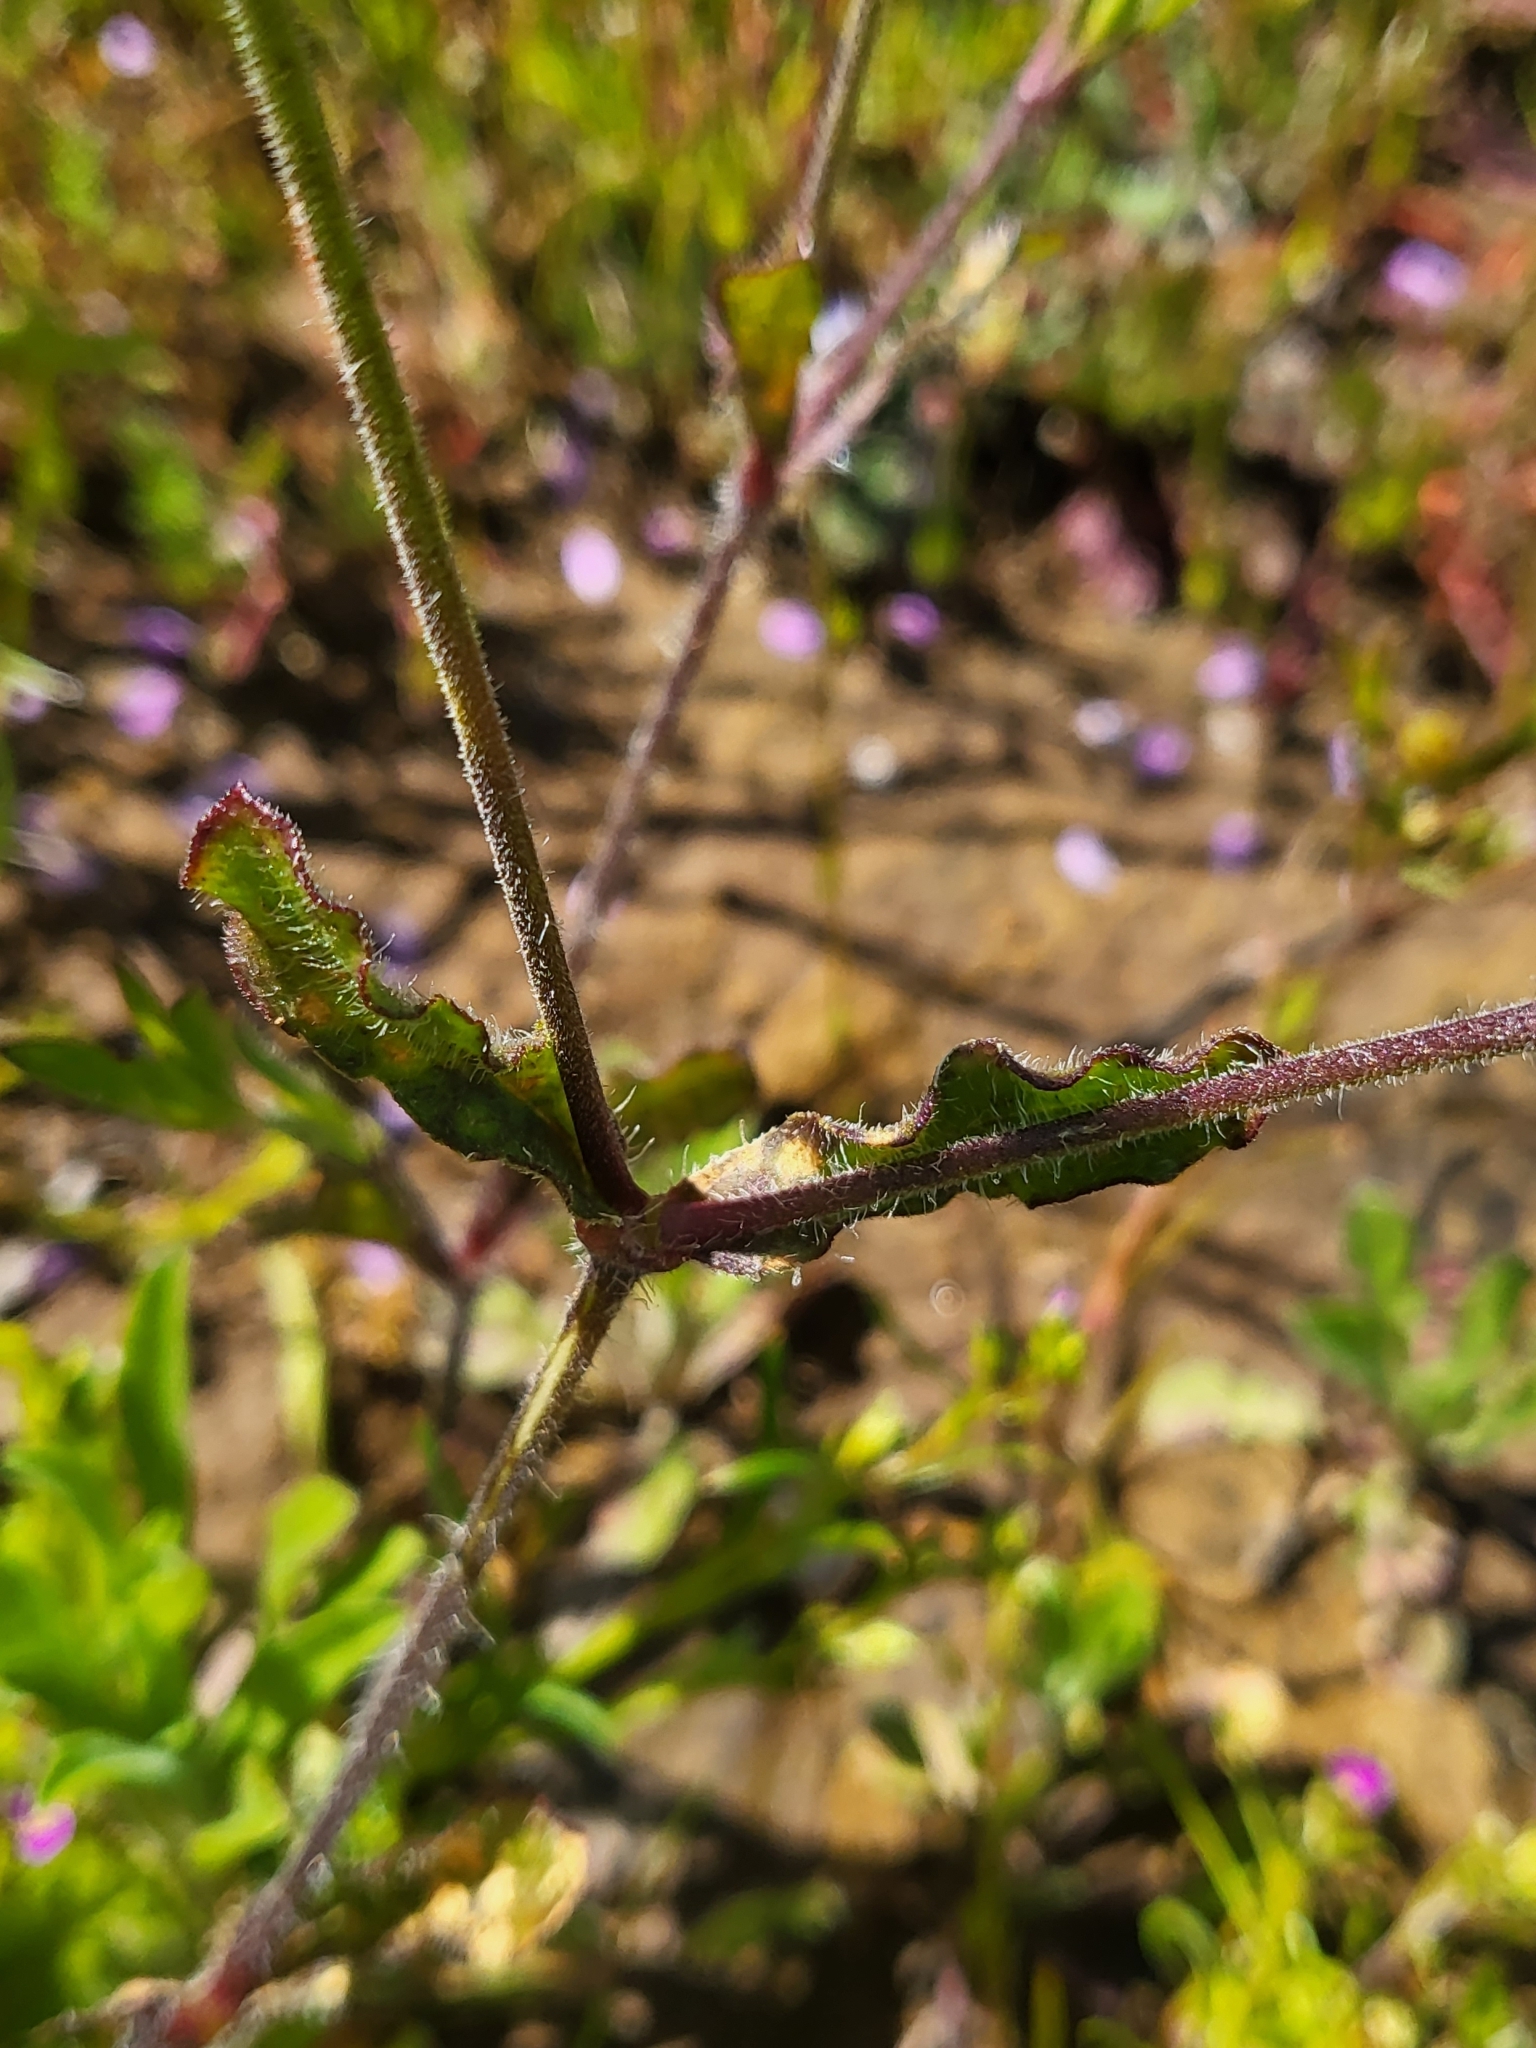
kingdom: Plantae
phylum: Tracheophyta
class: Magnoliopsida
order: Caryophyllales
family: Caryophyllaceae
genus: Silene
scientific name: Silene gallica
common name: Small-flowered catchfly
